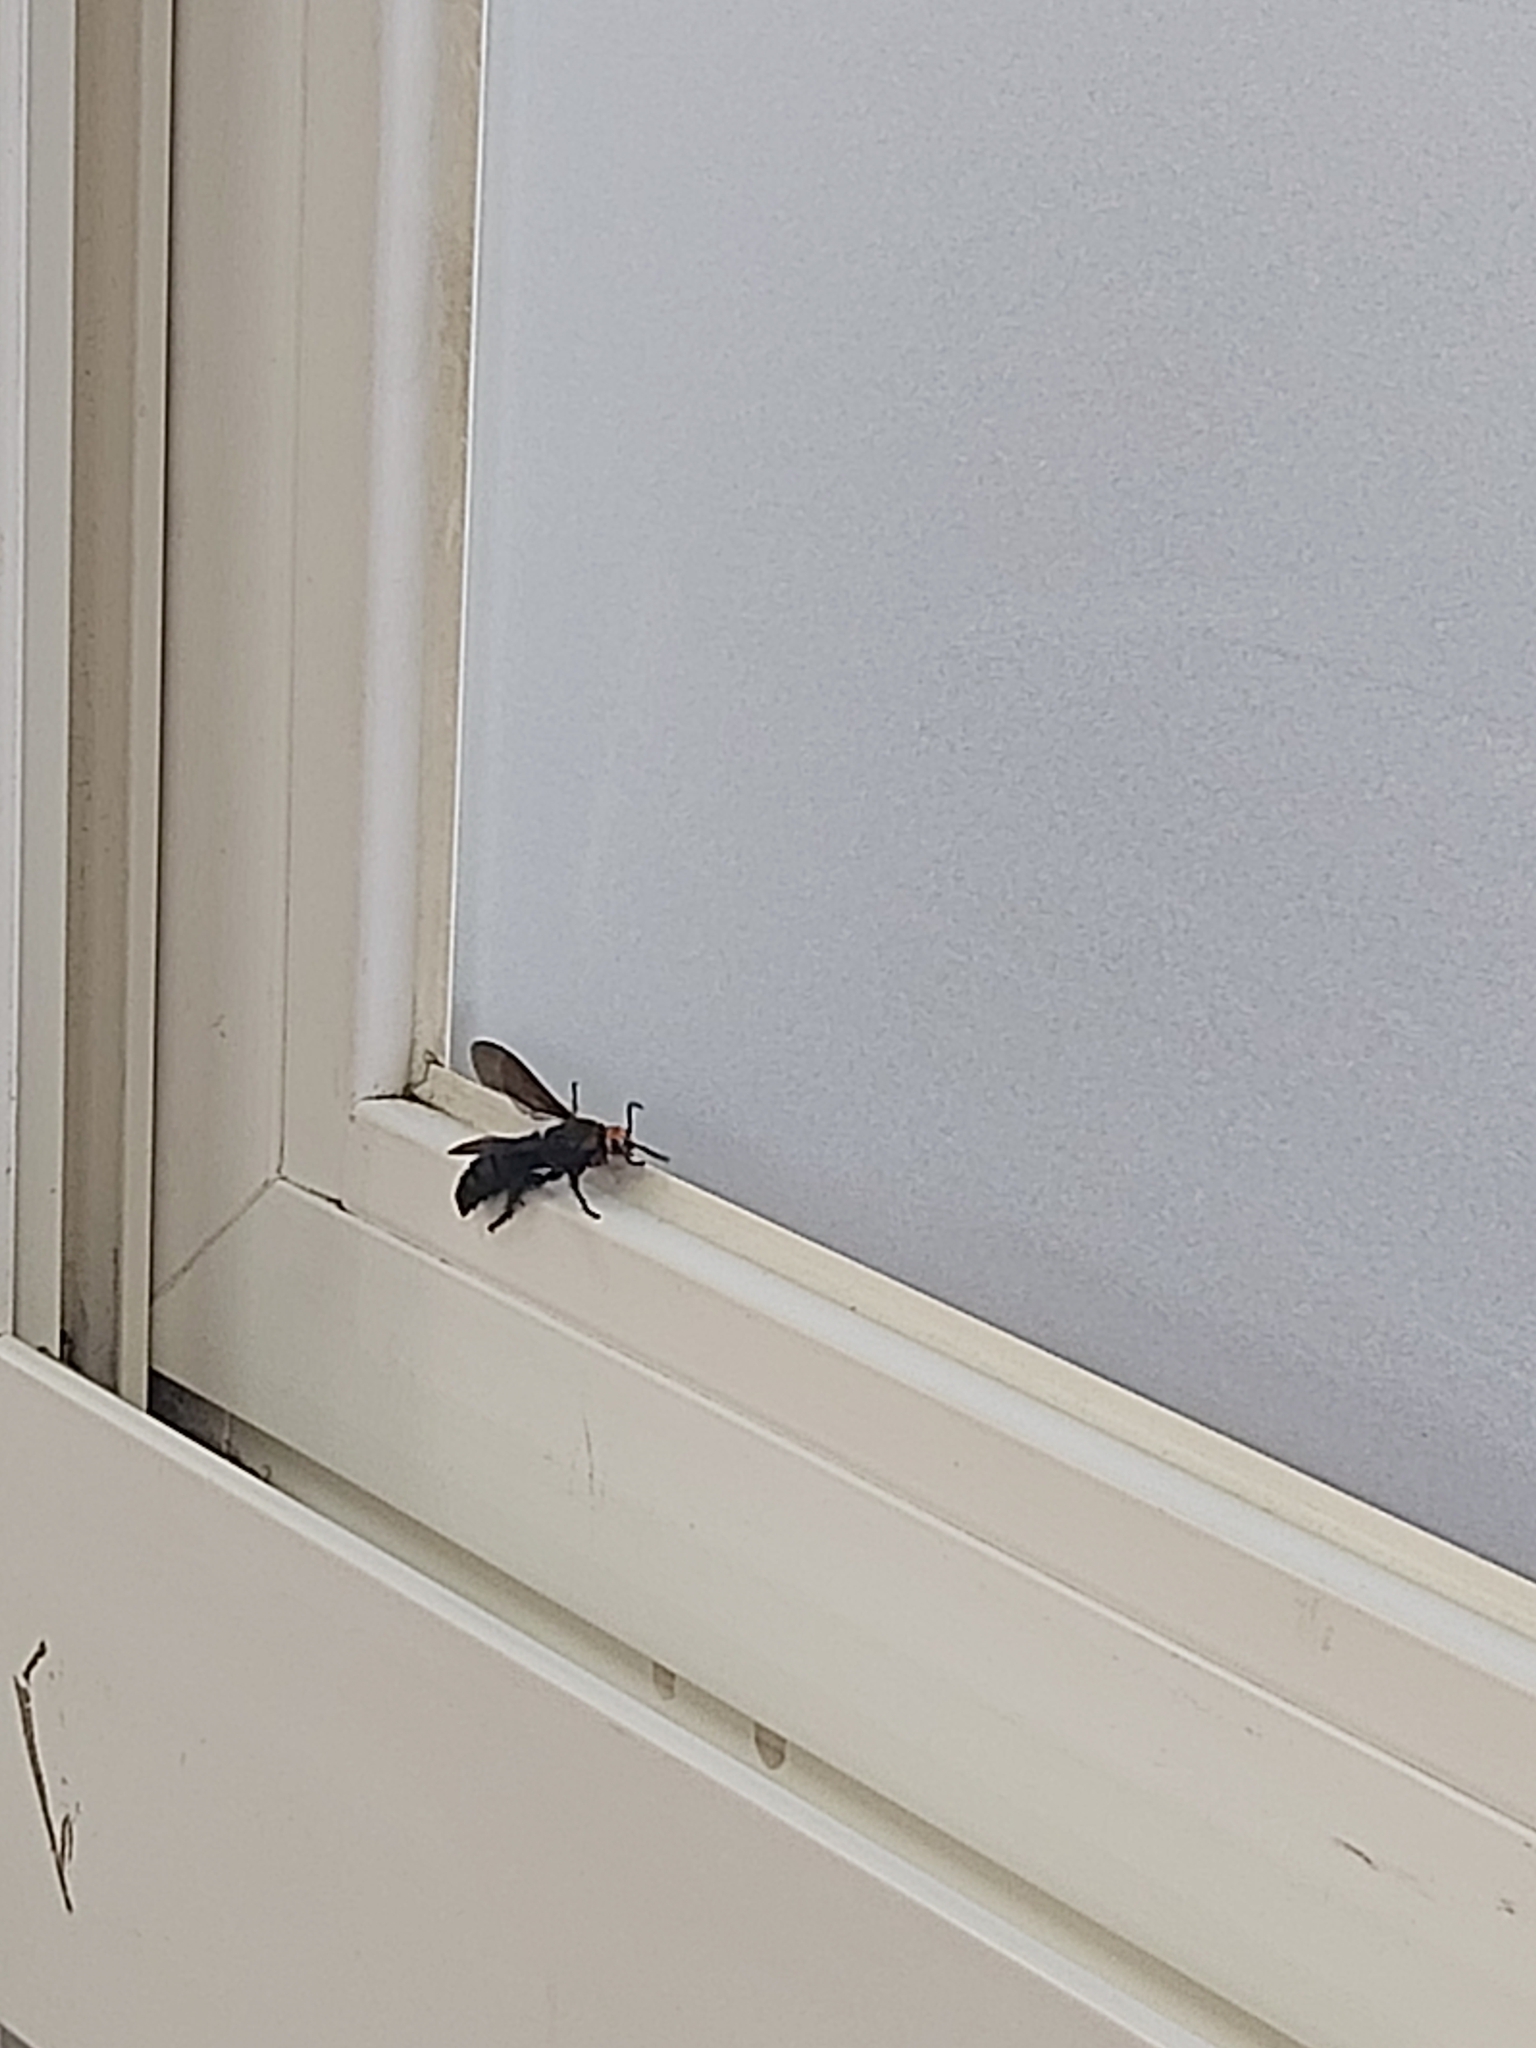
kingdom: Animalia
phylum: Arthropoda
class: Insecta
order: Hymenoptera
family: Scoliidae
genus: Scolia
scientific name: Scolia clypeata
